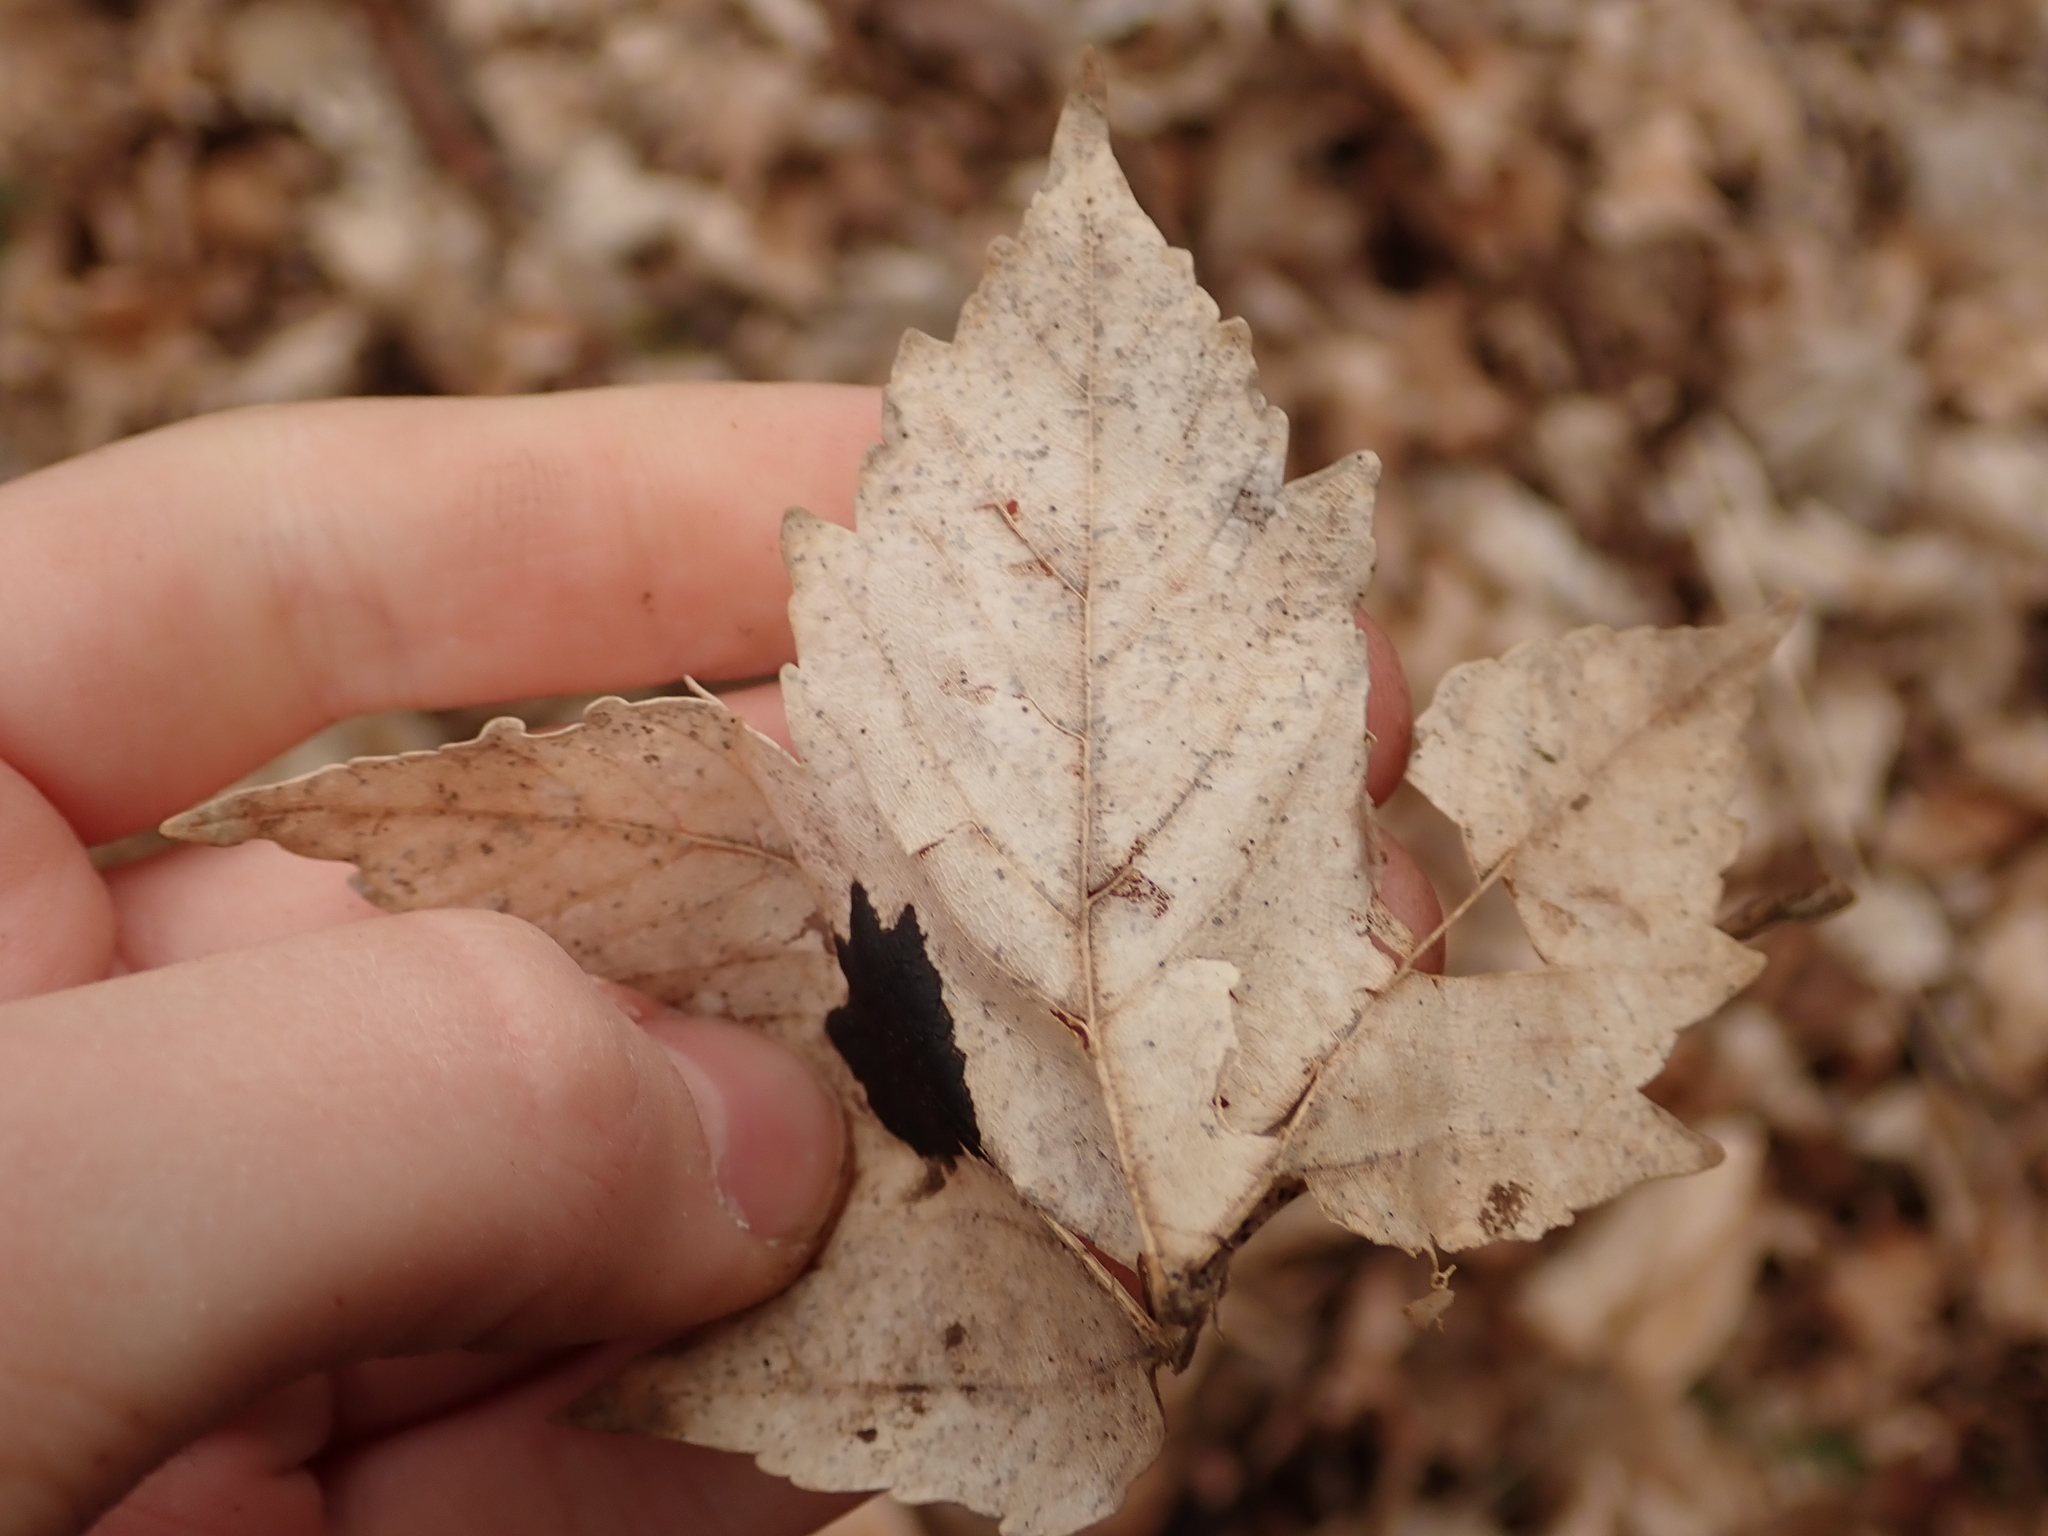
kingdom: Plantae
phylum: Tracheophyta
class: Magnoliopsida
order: Sapindales
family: Sapindaceae
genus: Acer
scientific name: Acer pseudoplatanus
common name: Sycamore
